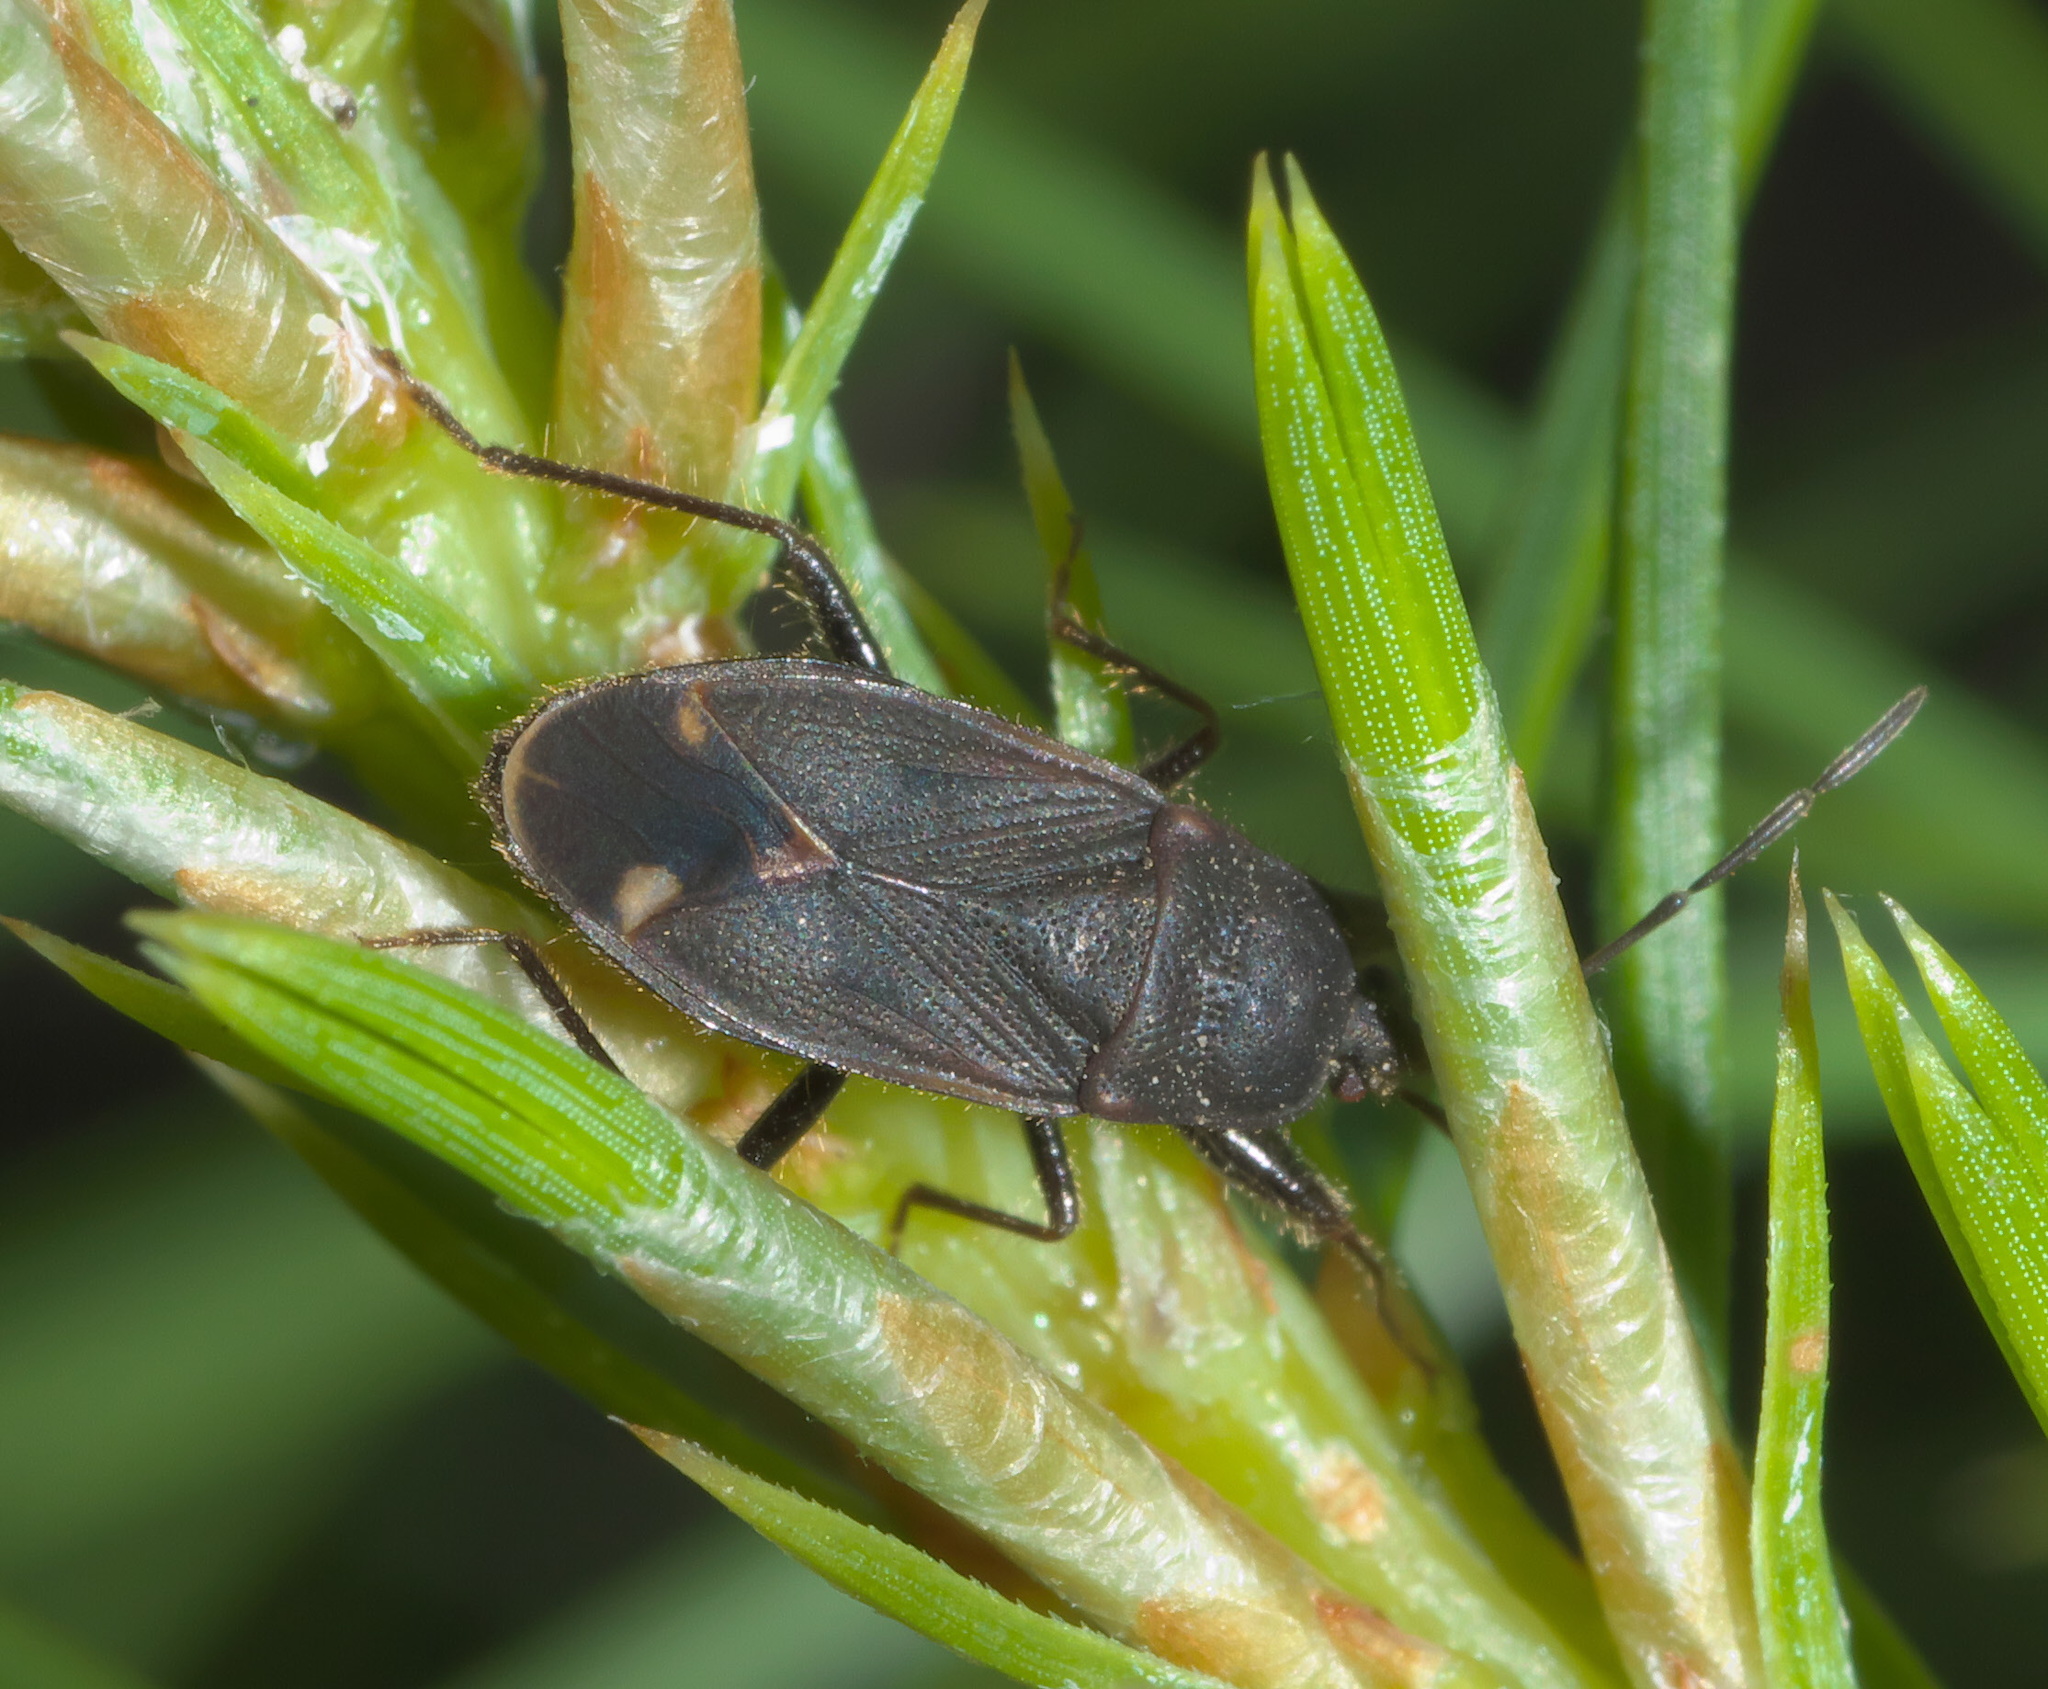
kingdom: Animalia
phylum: Arthropoda
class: Insecta
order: Hemiptera
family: Rhyparochromidae
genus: Eremocoris
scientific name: Eremocoris setosus
